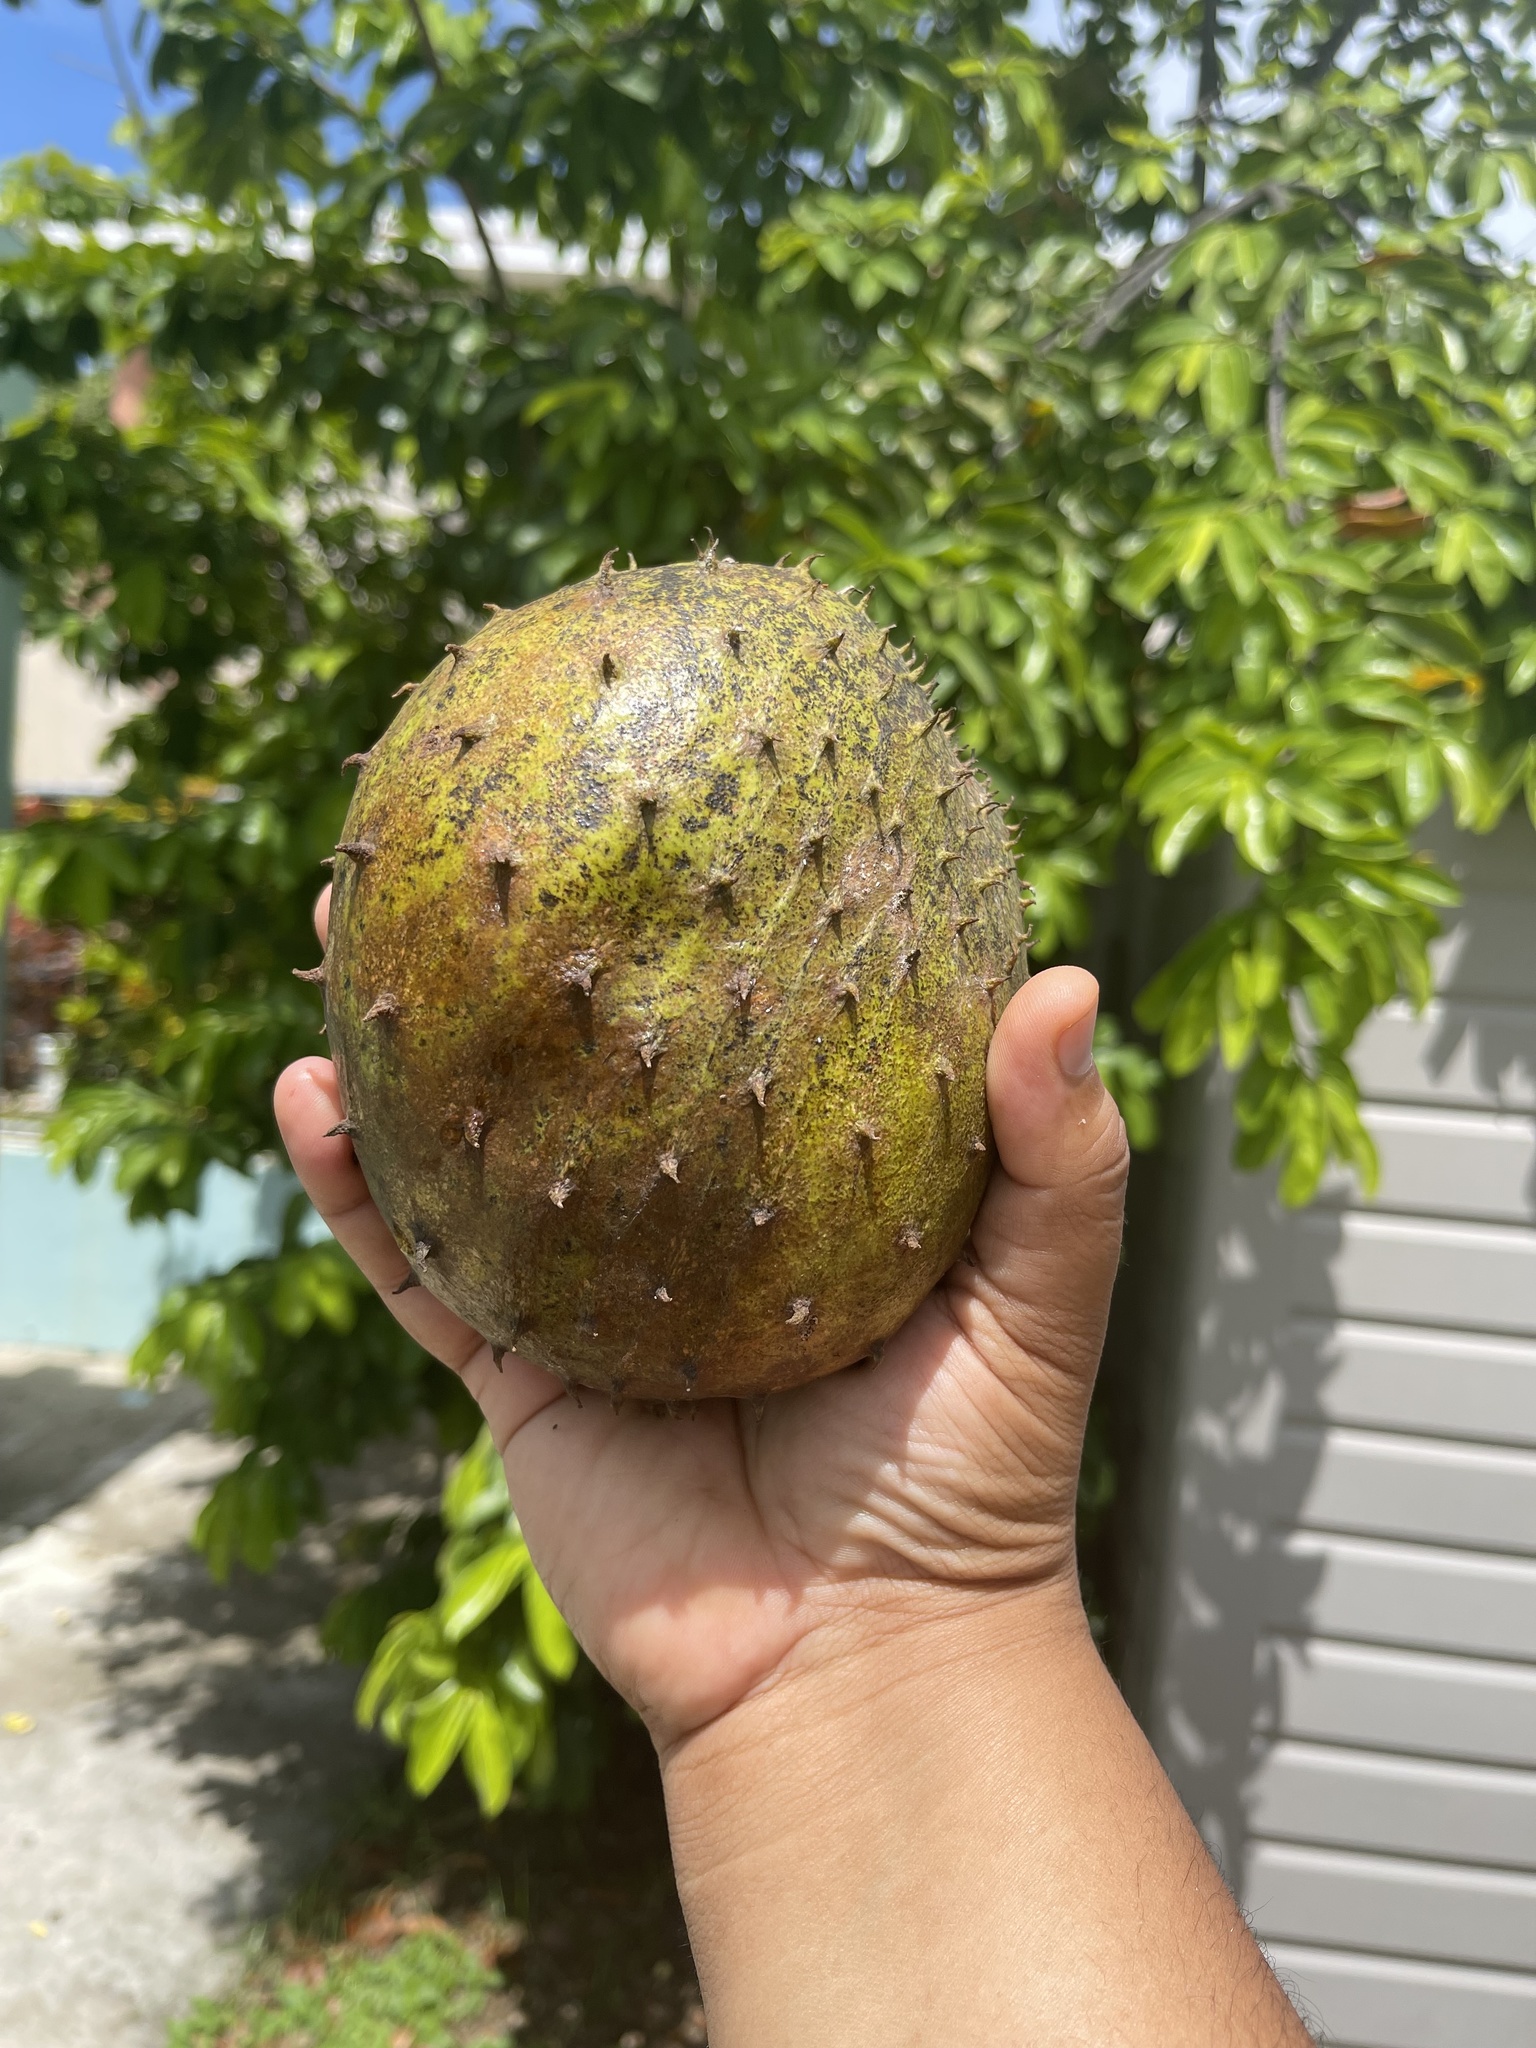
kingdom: Plantae
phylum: Tracheophyta
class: Magnoliopsida
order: Magnoliales
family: Annonaceae
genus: Annona
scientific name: Annona muricata
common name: Soursop
